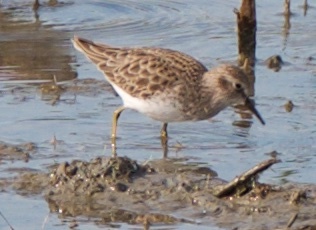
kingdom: Animalia
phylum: Chordata
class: Aves
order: Charadriiformes
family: Scolopacidae
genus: Calidris
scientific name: Calidris minutilla
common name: Least sandpiper
